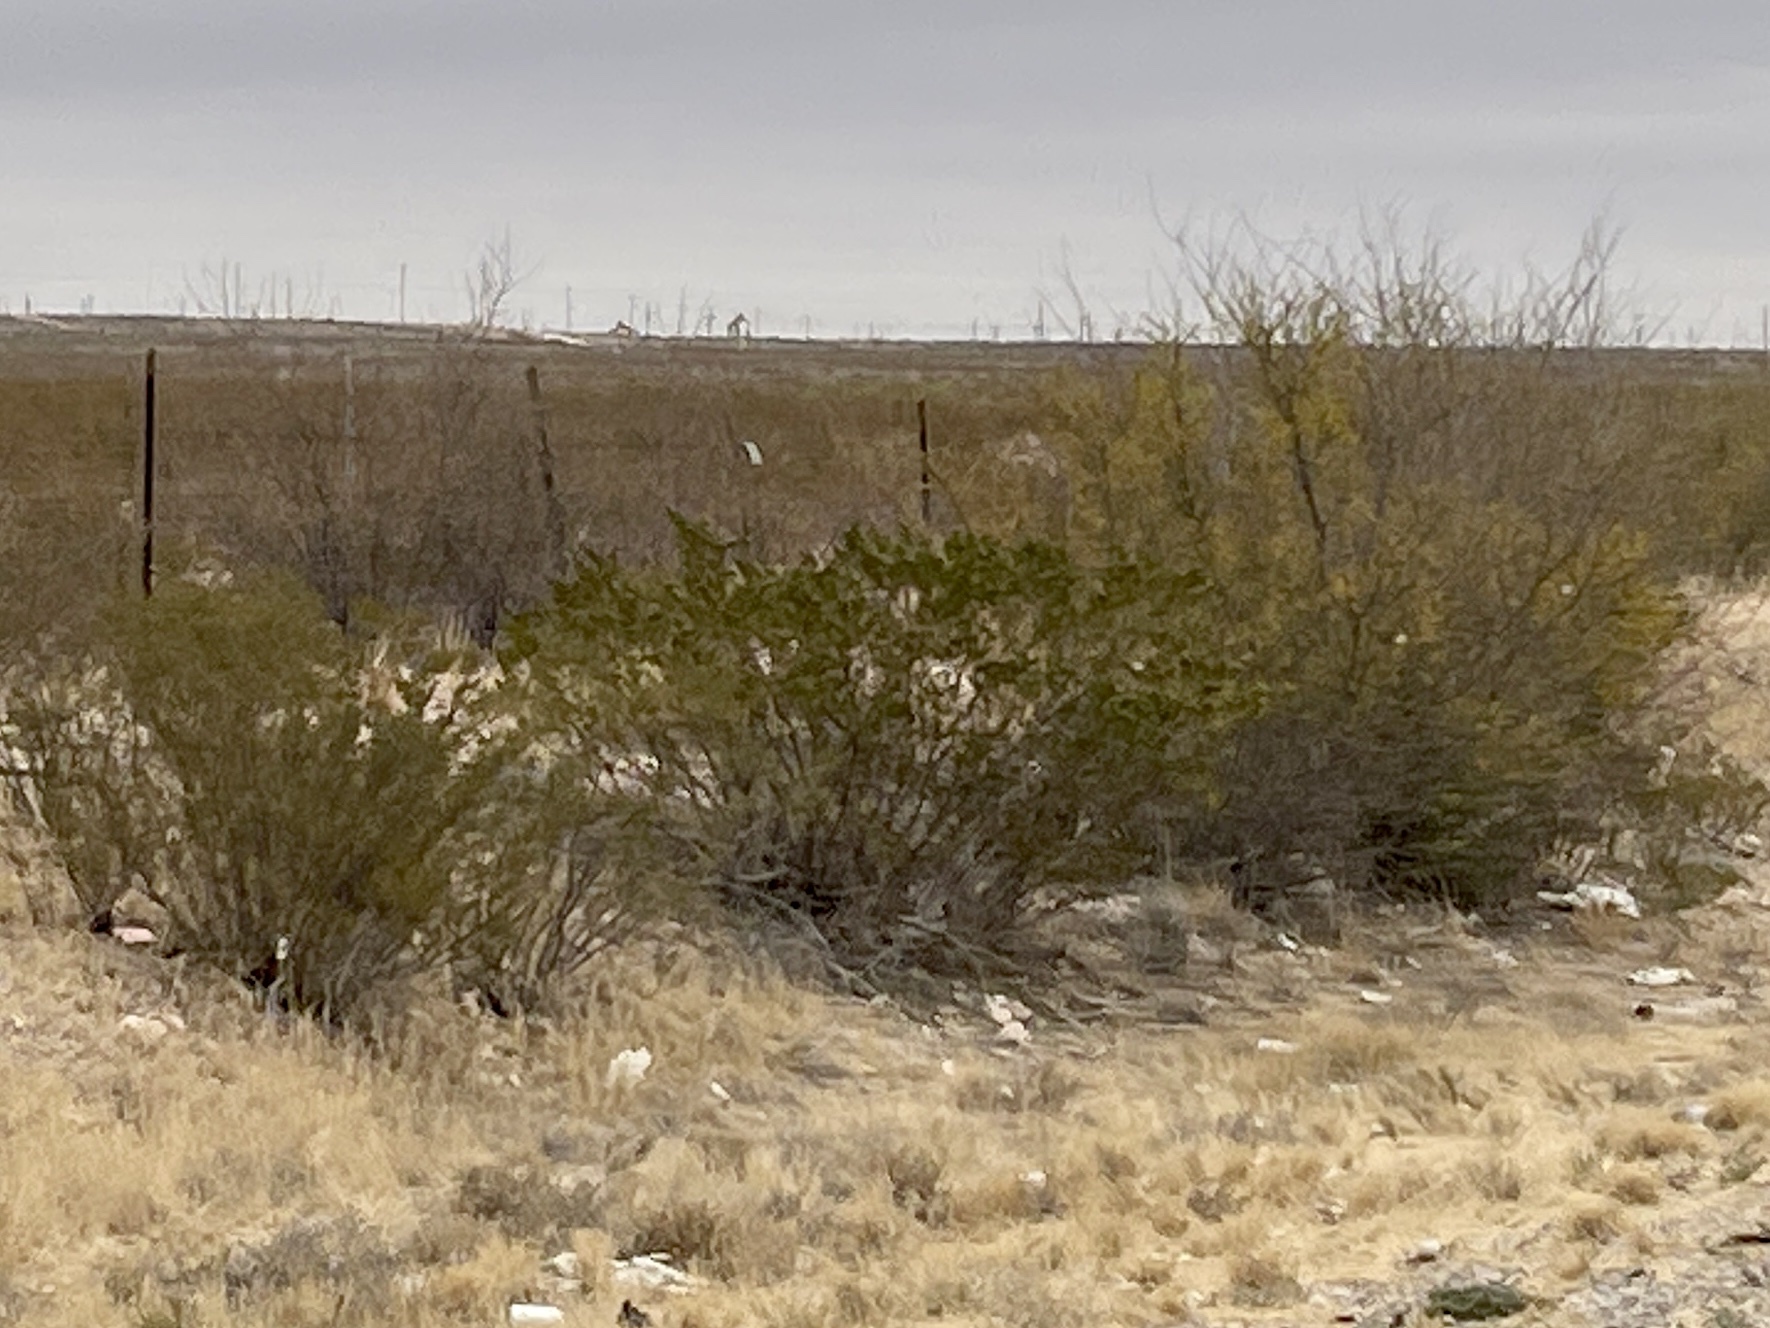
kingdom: Plantae
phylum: Tracheophyta
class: Magnoliopsida
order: Zygophyllales
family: Zygophyllaceae
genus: Larrea
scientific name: Larrea tridentata
